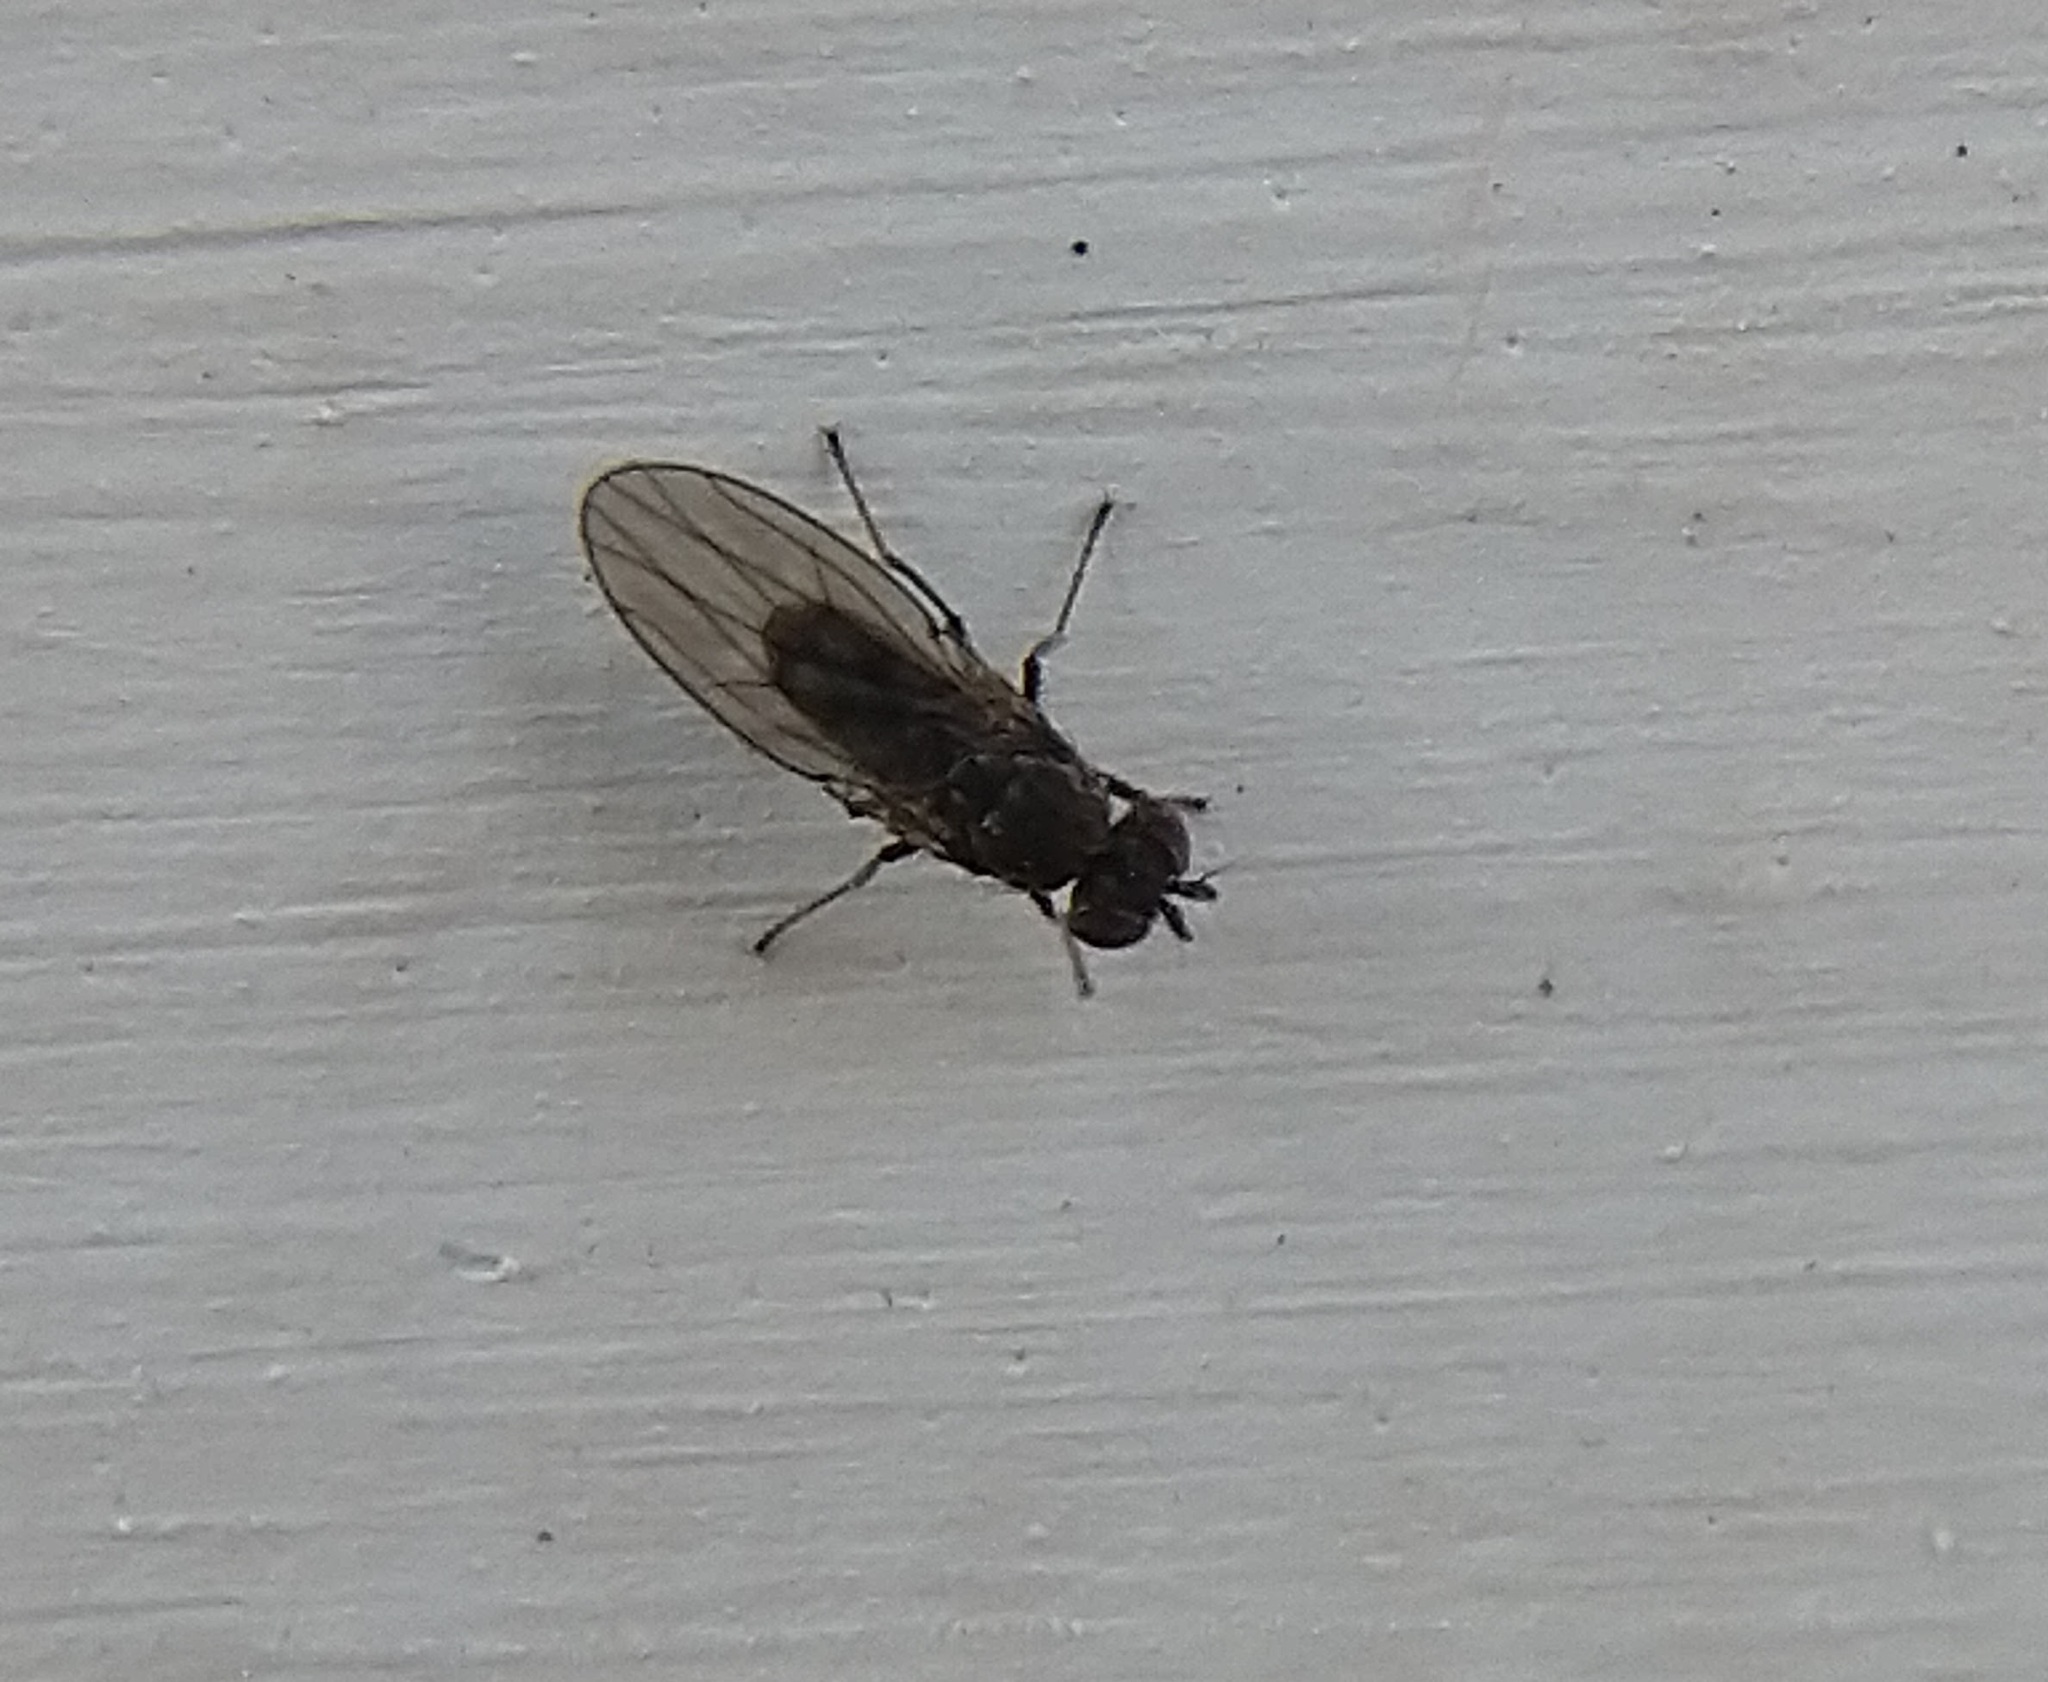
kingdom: Animalia
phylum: Arthropoda
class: Insecta
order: Diptera
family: Ephydridae
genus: Philygria
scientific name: Philygria debilis
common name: Brine fly
